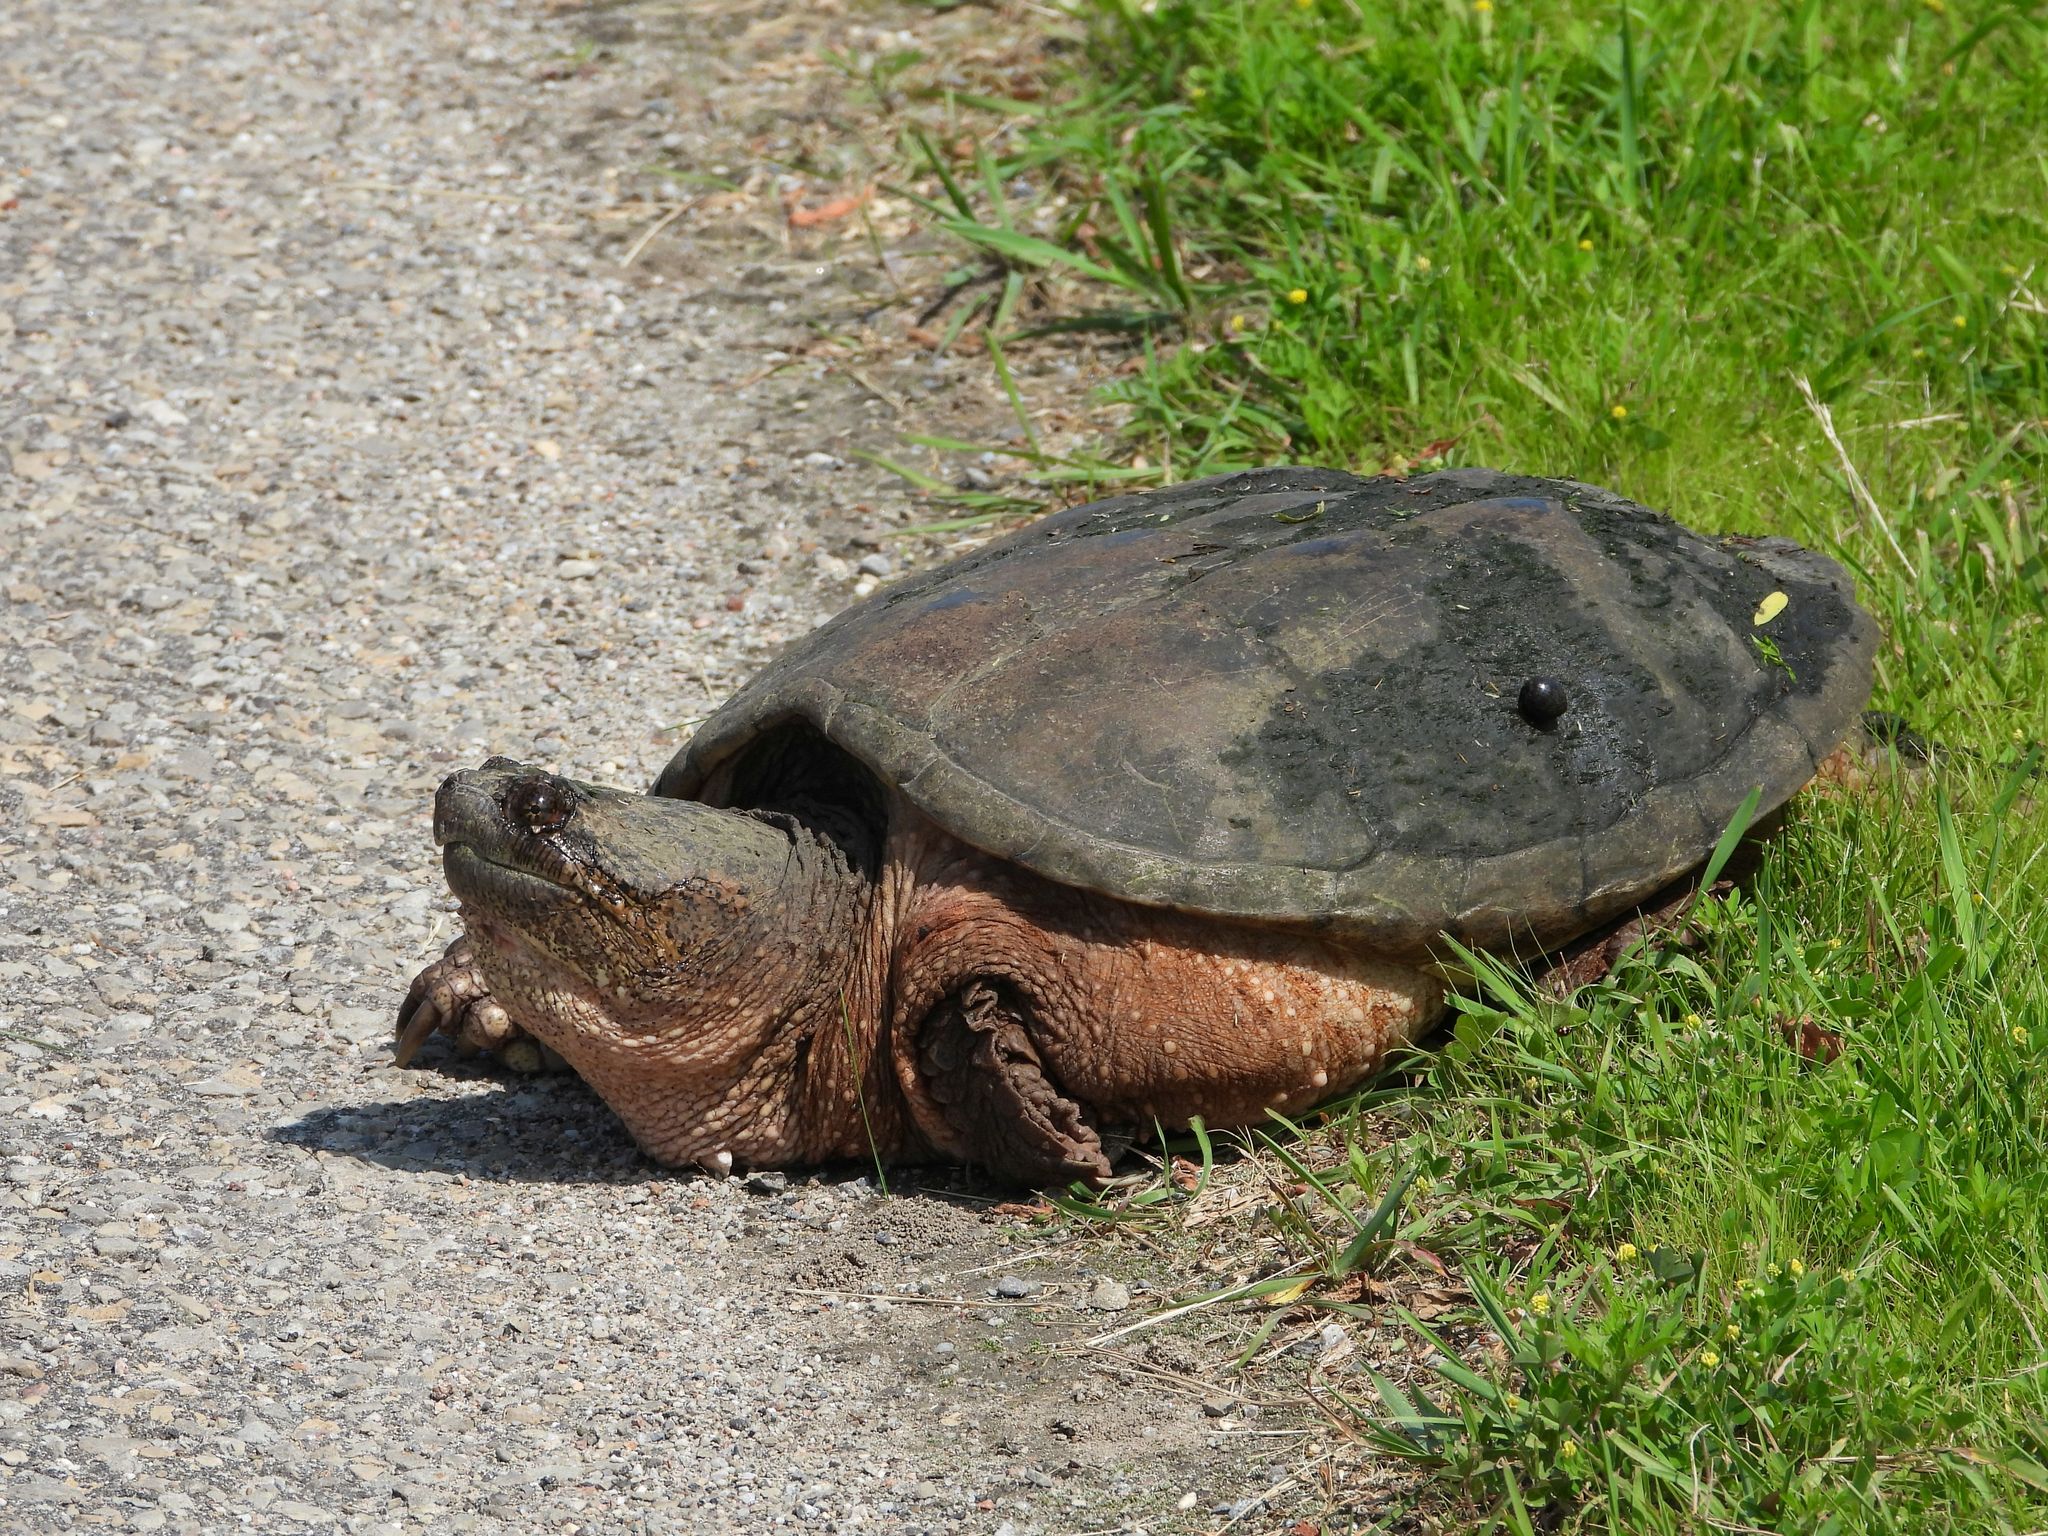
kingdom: Animalia
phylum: Chordata
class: Testudines
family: Chelydridae
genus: Chelydra
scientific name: Chelydra serpentina
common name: Common snapping turtle
